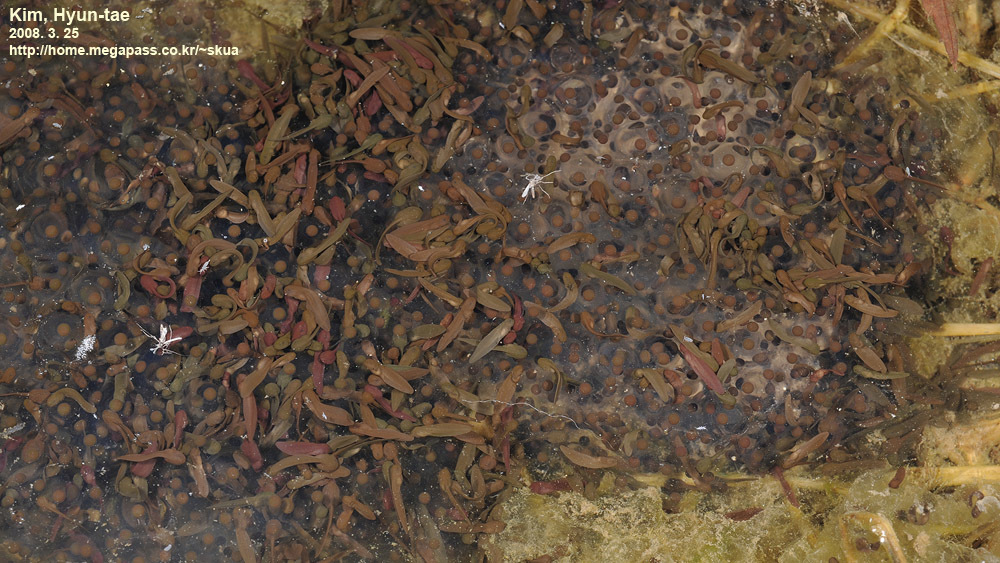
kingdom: Animalia
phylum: Chordata
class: Amphibia
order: Anura
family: Ranidae
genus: Rana
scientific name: Rana uenoi
